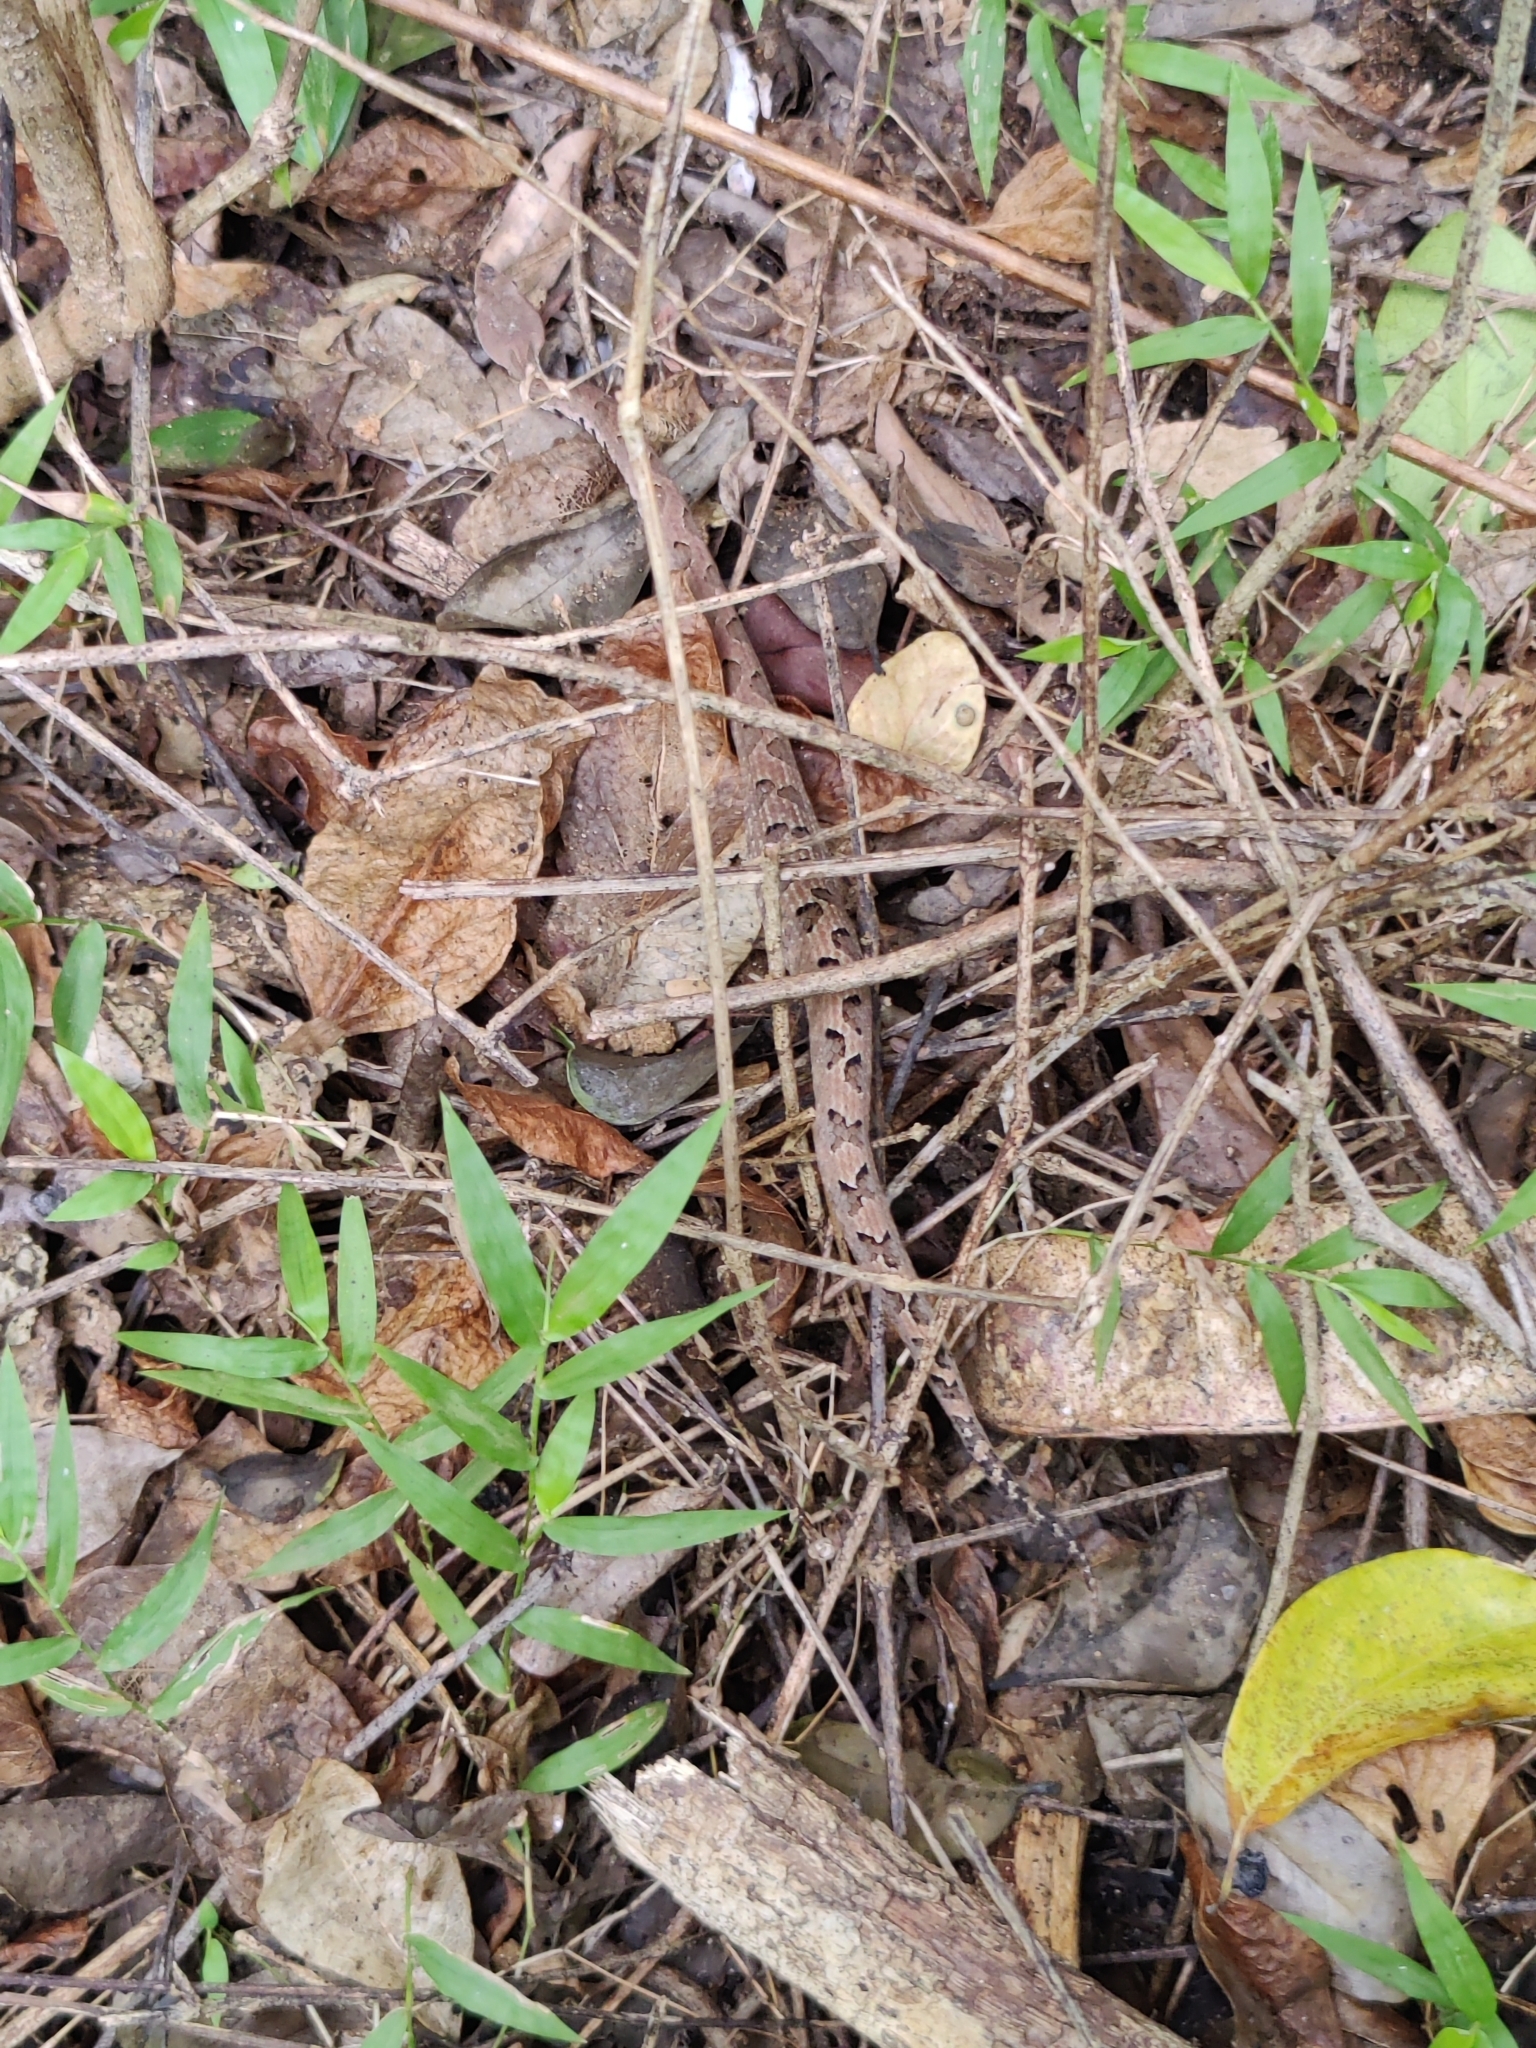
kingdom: Animalia
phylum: Chordata
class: Squamata
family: Viperidae
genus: Hypnale
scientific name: Hypnale hypnale
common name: Hump-nosed moccasin
